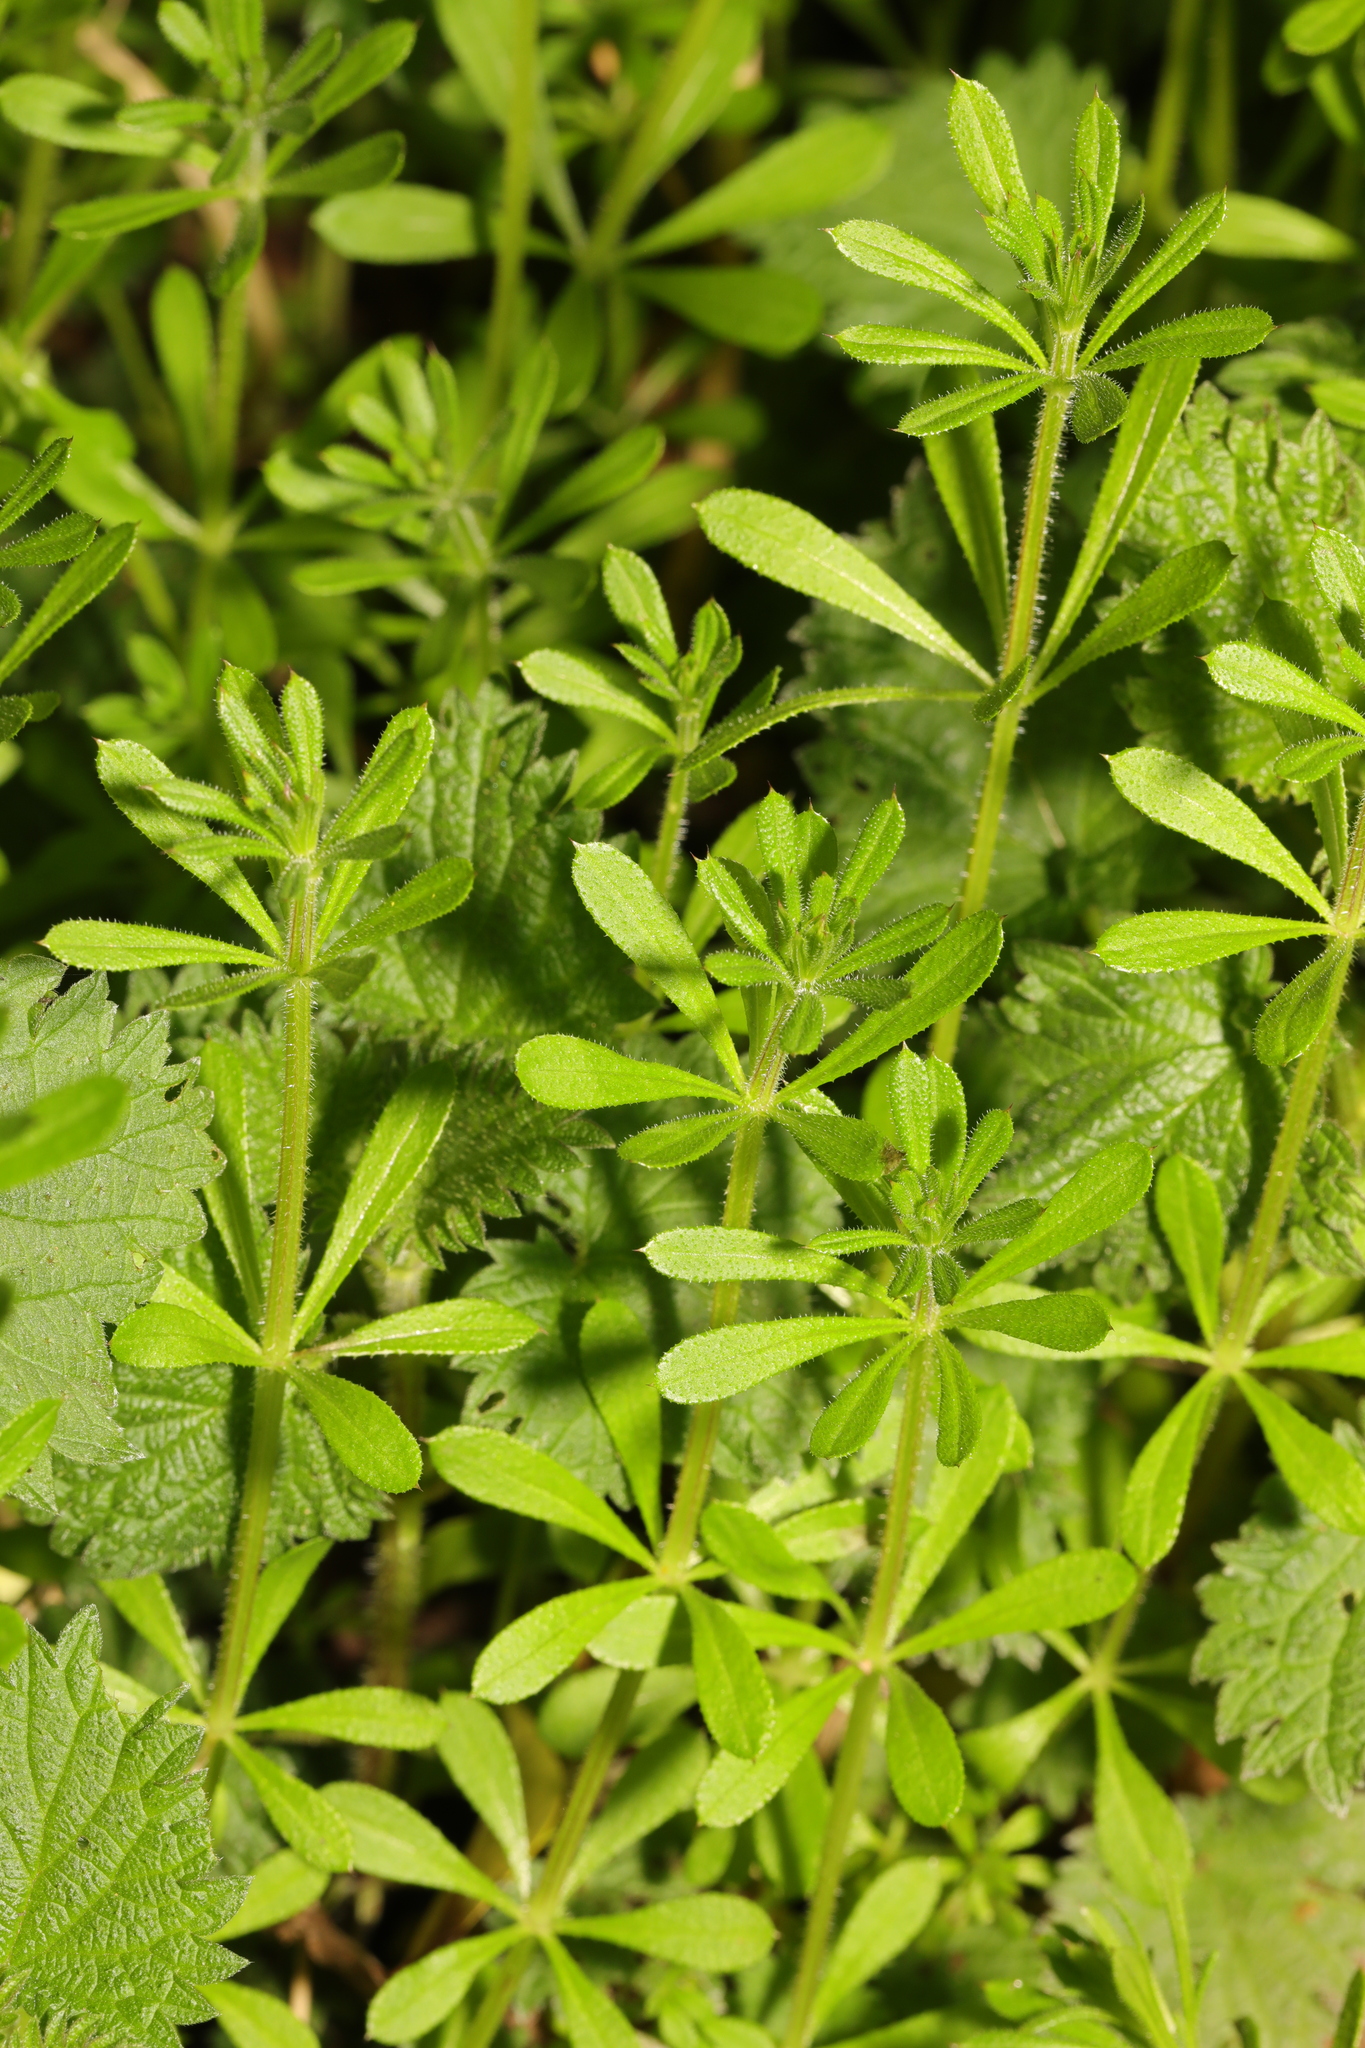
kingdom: Plantae
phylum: Tracheophyta
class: Magnoliopsida
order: Gentianales
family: Rubiaceae
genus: Galium
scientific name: Galium aparine
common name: Cleavers
